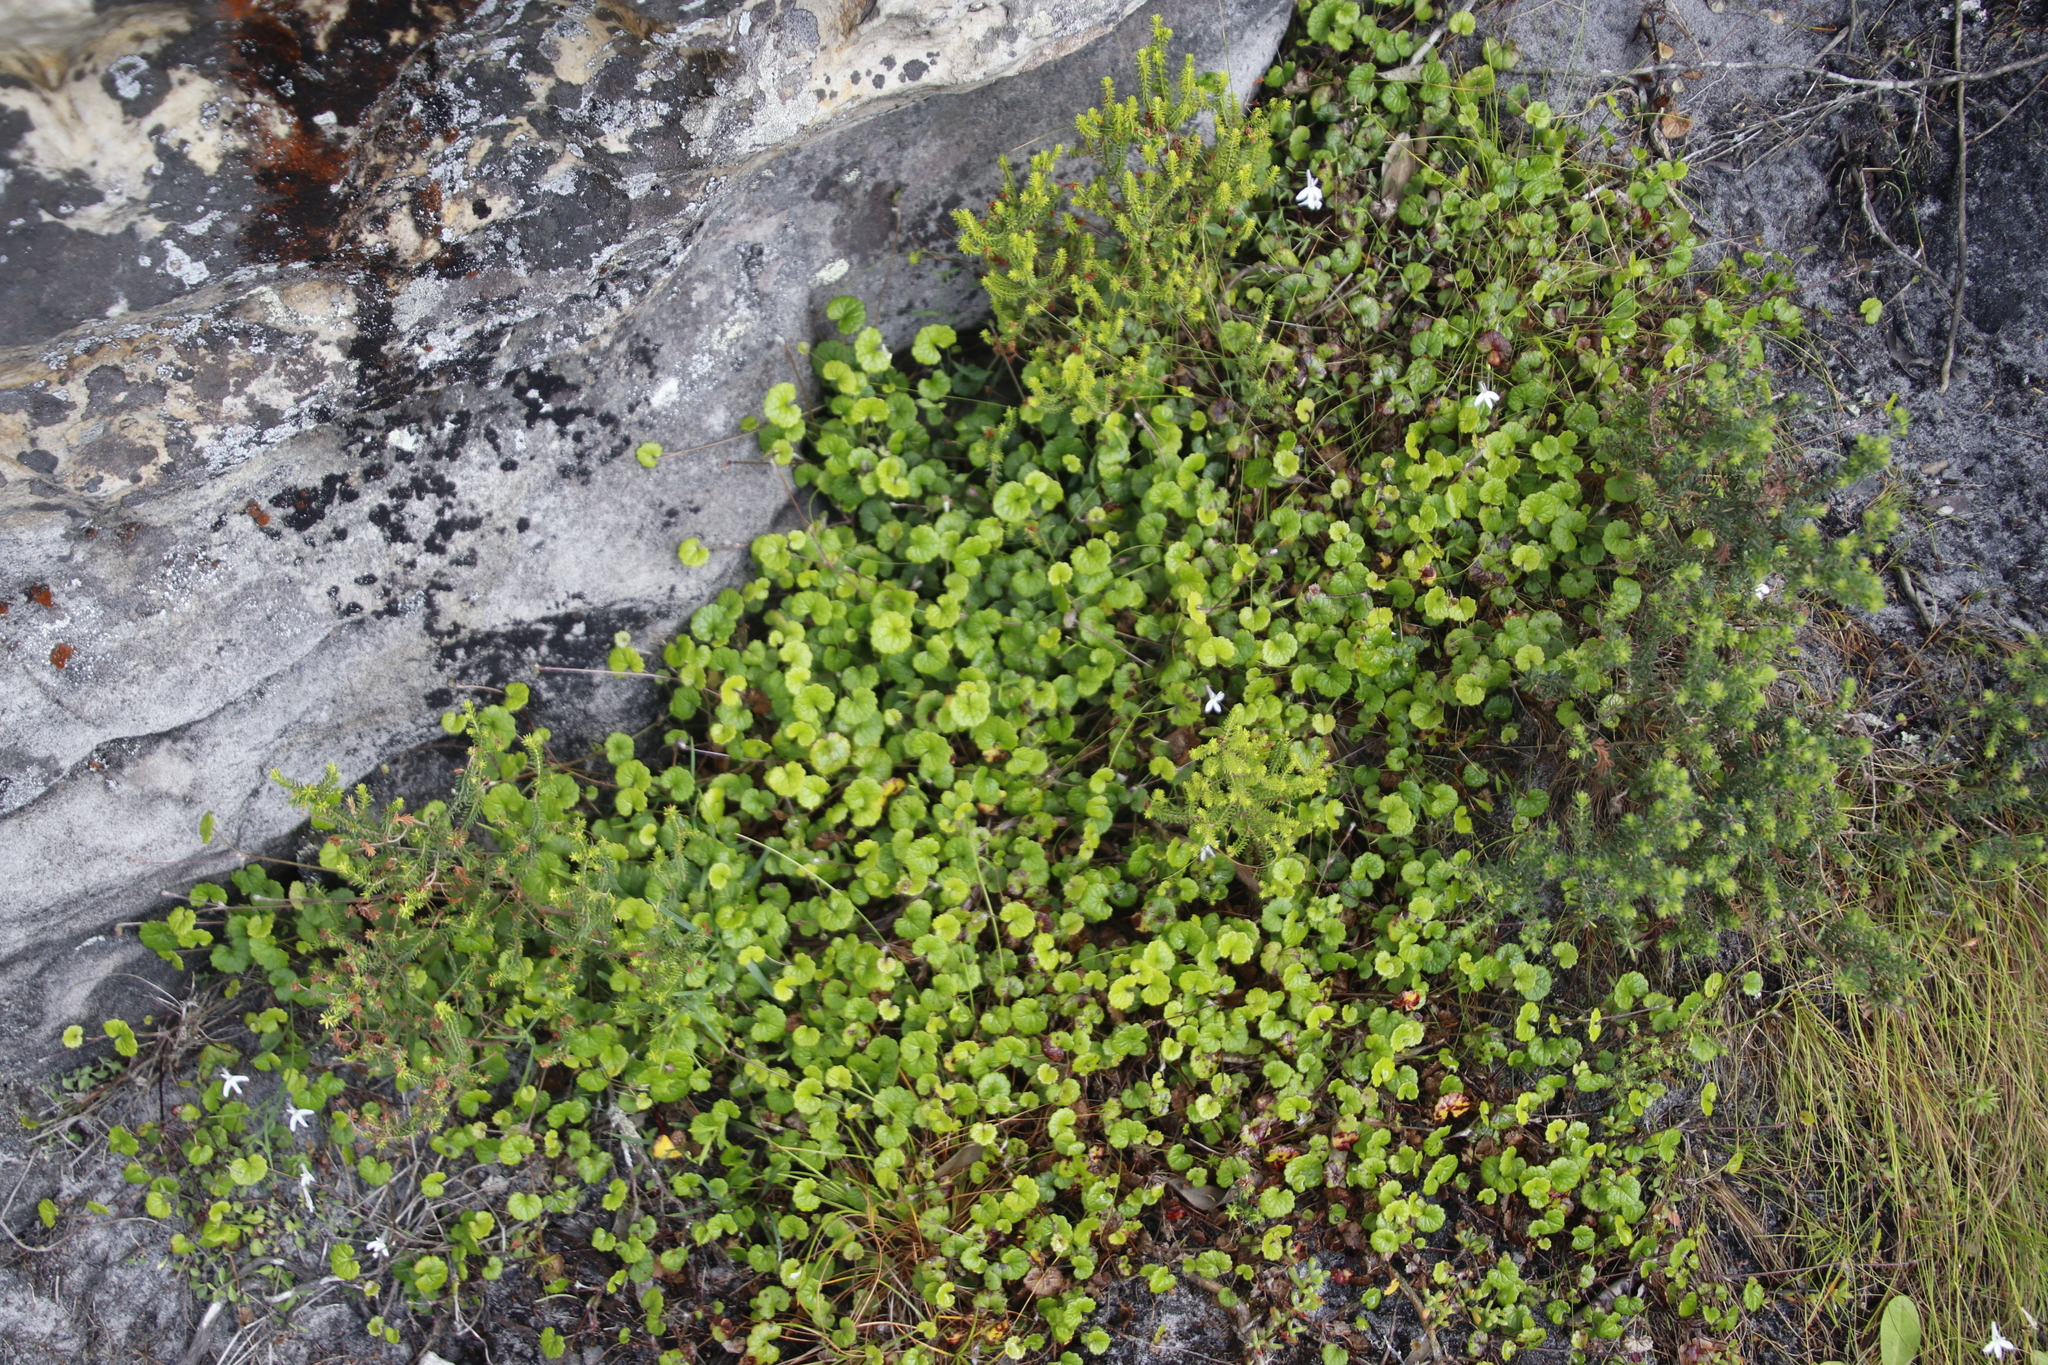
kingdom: Plantae
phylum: Tracheophyta
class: Magnoliopsida
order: Apiales
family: Apiaceae
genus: Centella
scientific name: Centella eriantha
